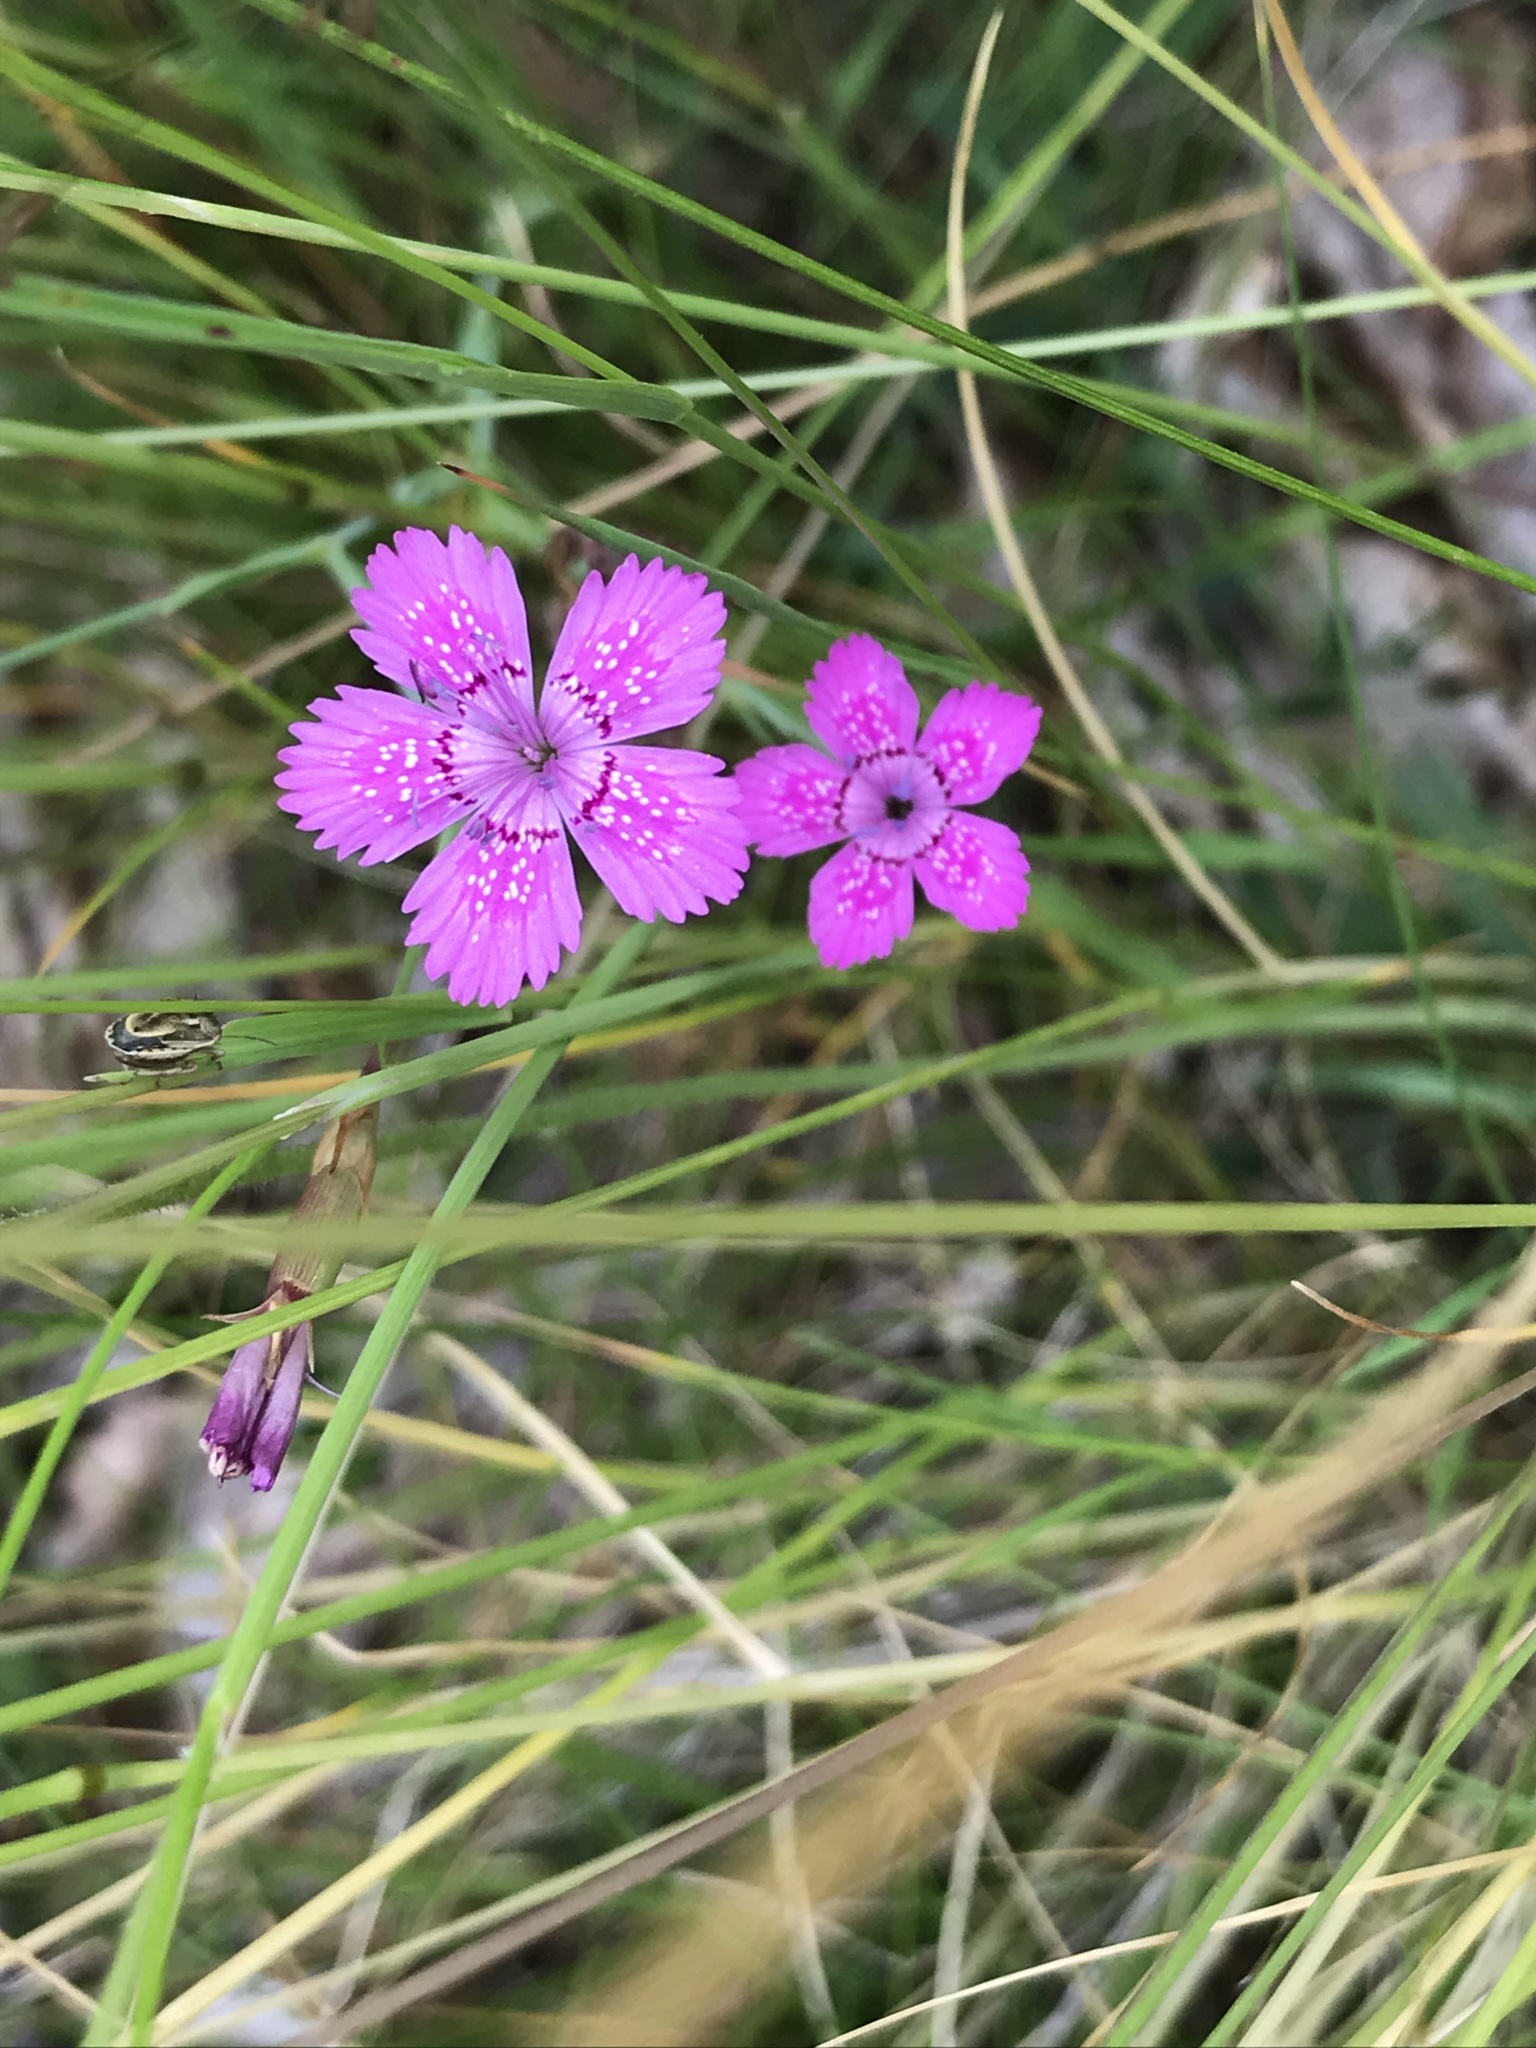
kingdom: Plantae
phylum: Tracheophyta
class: Magnoliopsida
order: Caryophyllales
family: Caryophyllaceae
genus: Dianthus
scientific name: Dianthus deltoides
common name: Maiden pink
